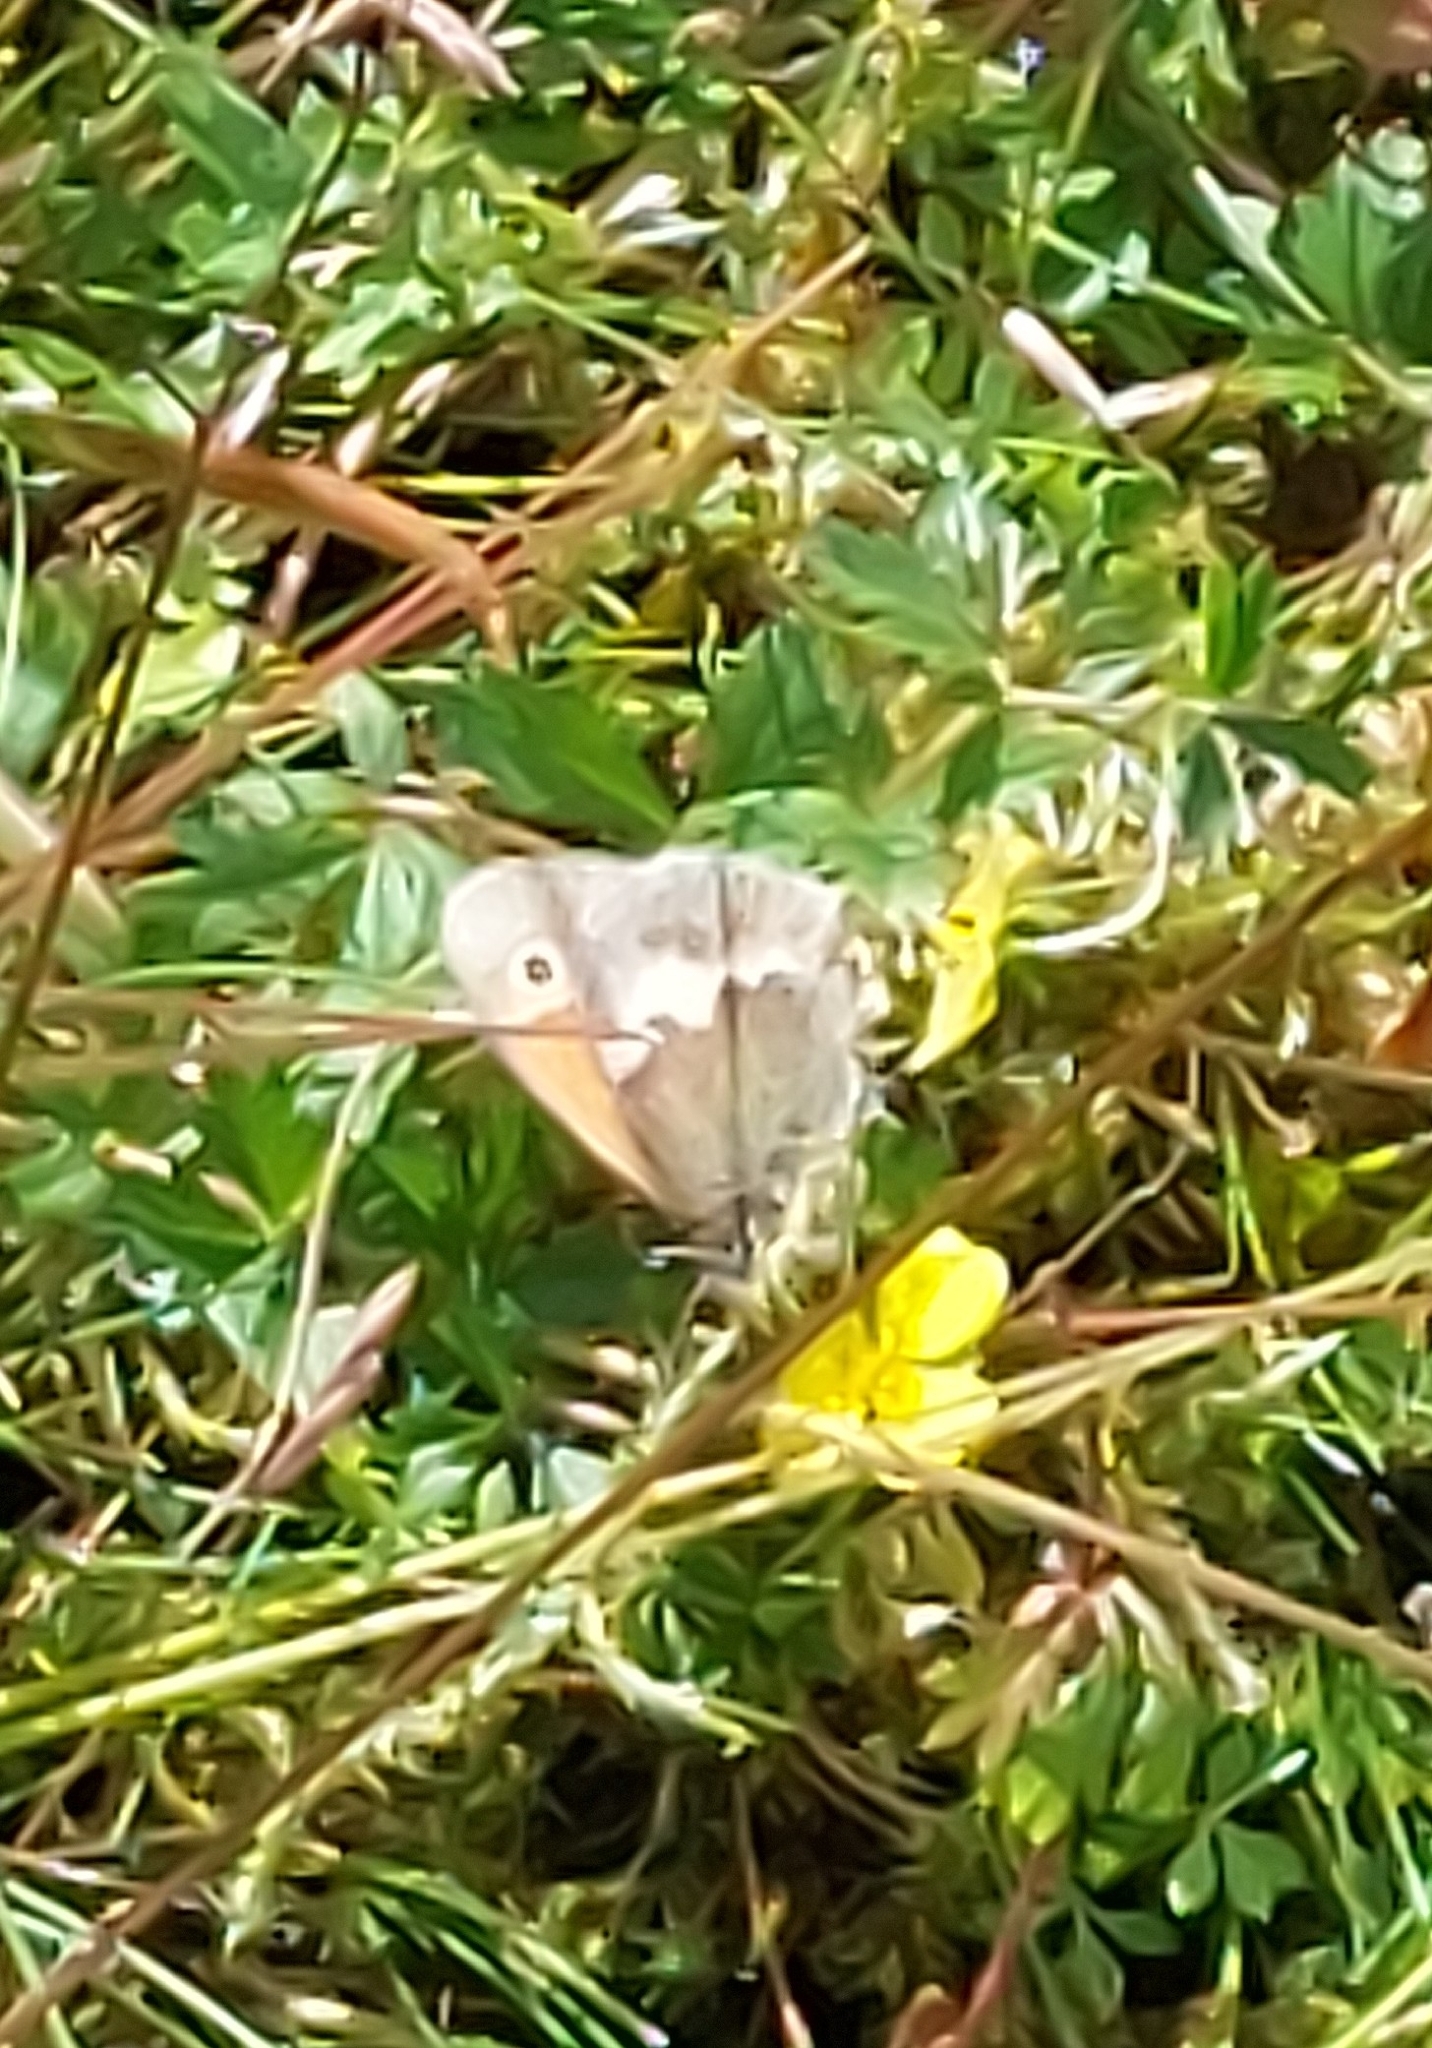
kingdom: Animalia
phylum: Arthropoda
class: Insecta
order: Lepidoptera
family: Nymphalidae
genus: Coenonympha
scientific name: Coenonympha pamphilus
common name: Small heath
